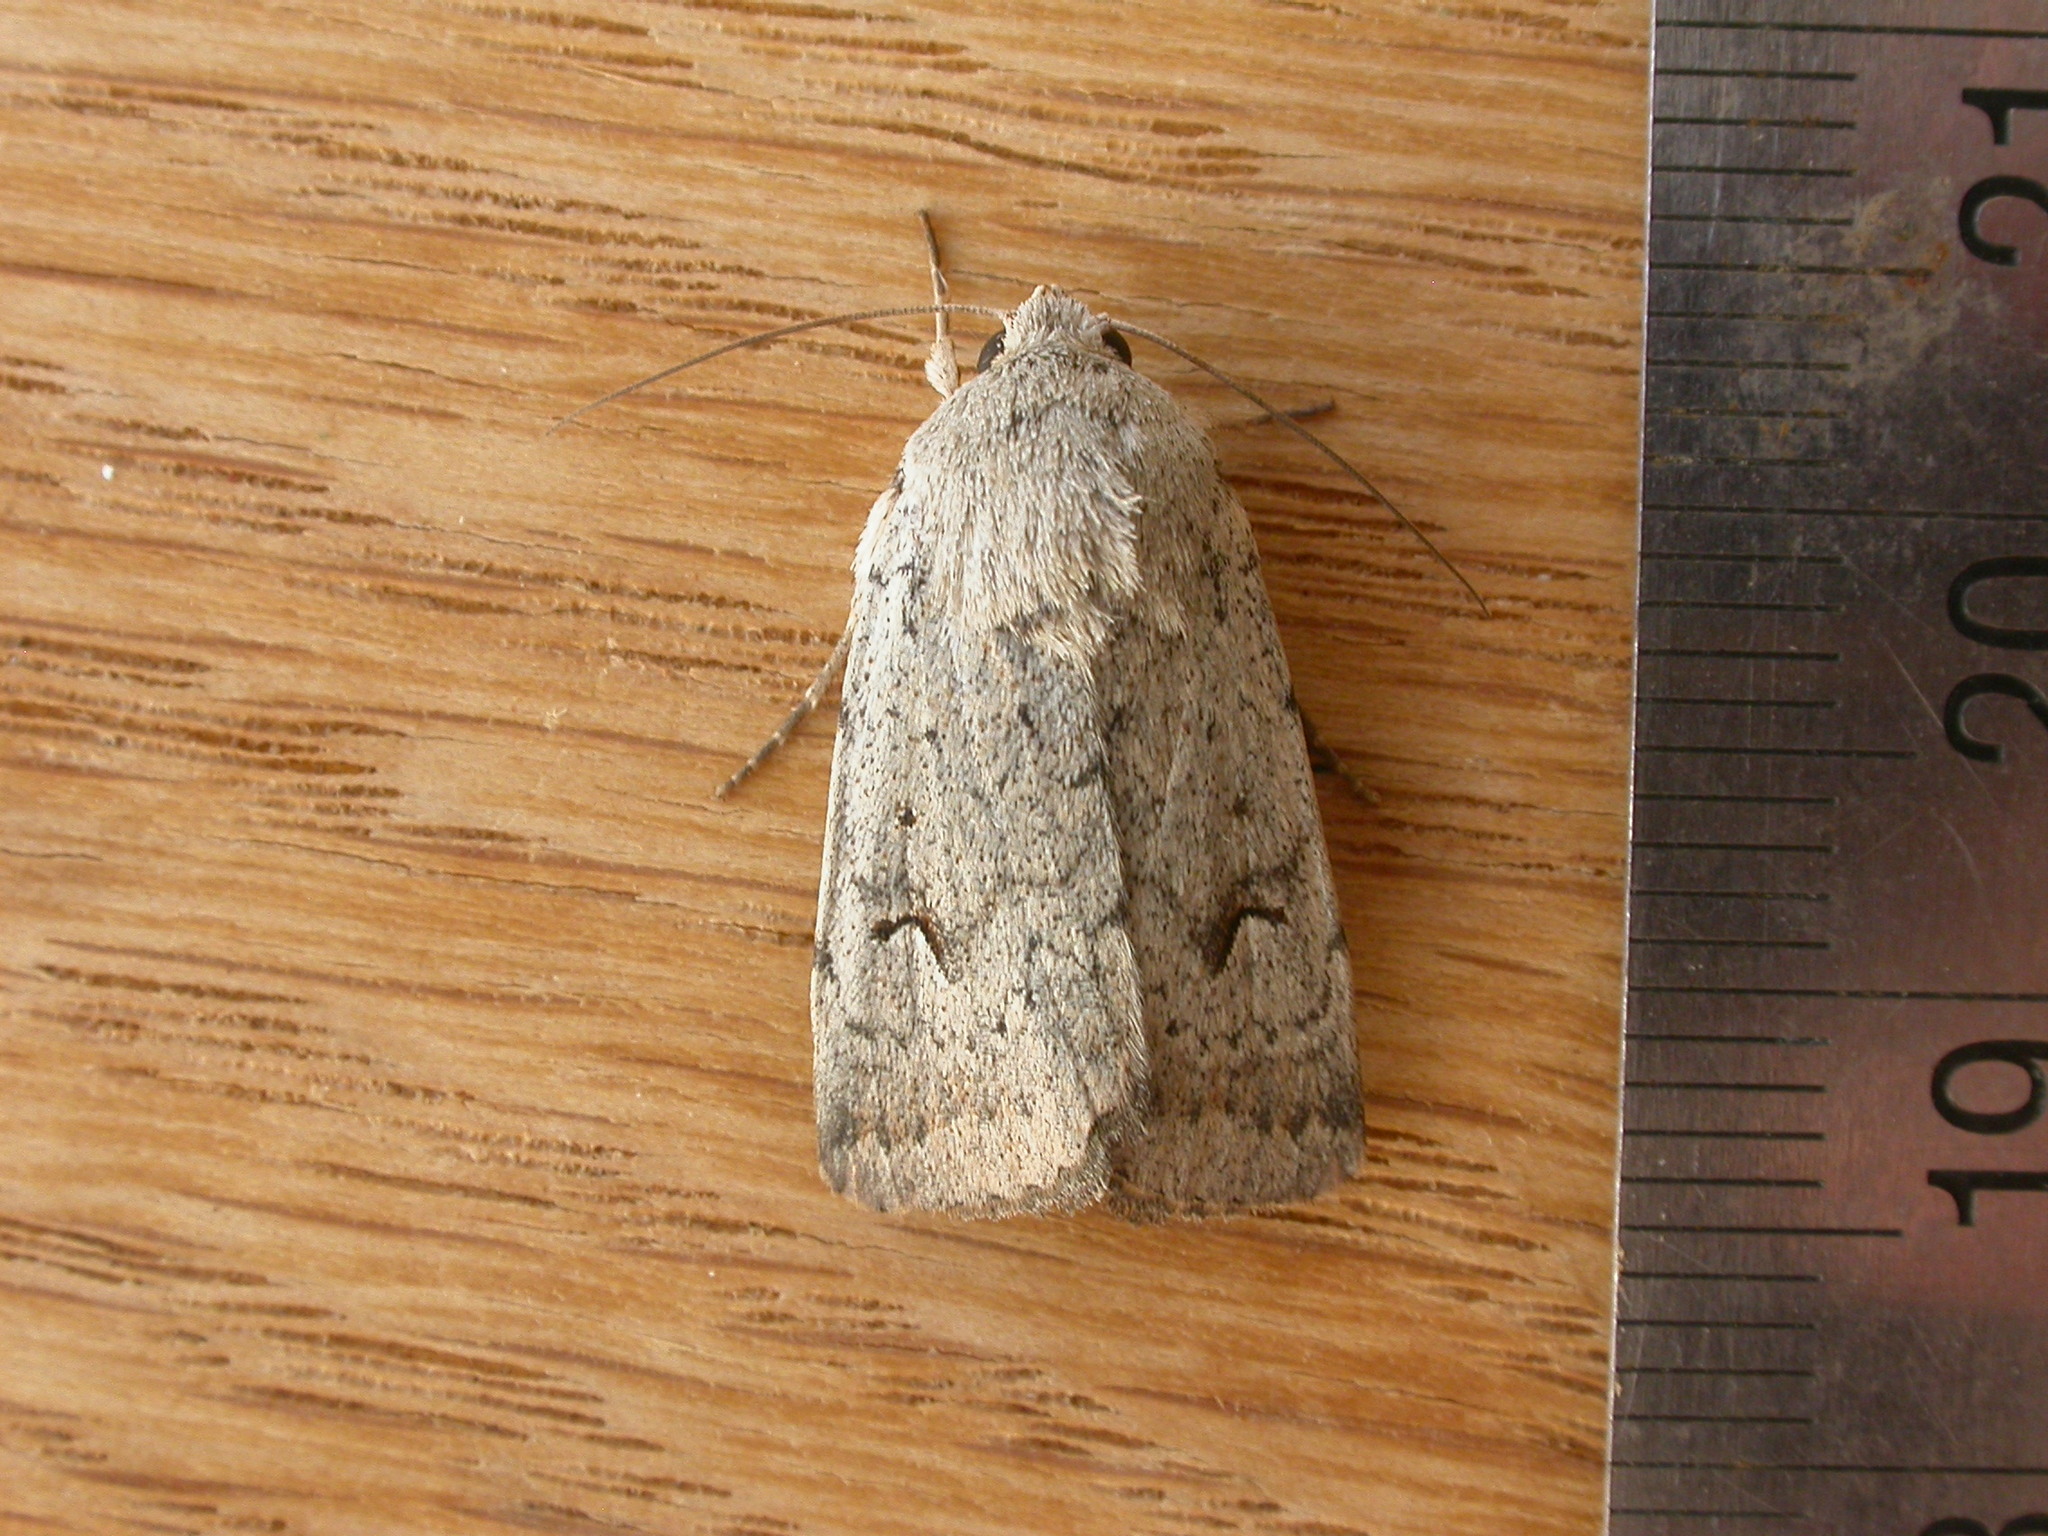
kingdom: Animalia
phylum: Arthropoda
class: Insecta
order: Lepidoptera
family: Noctuidae
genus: Proteuxoa
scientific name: Proteuxoa paratorna
